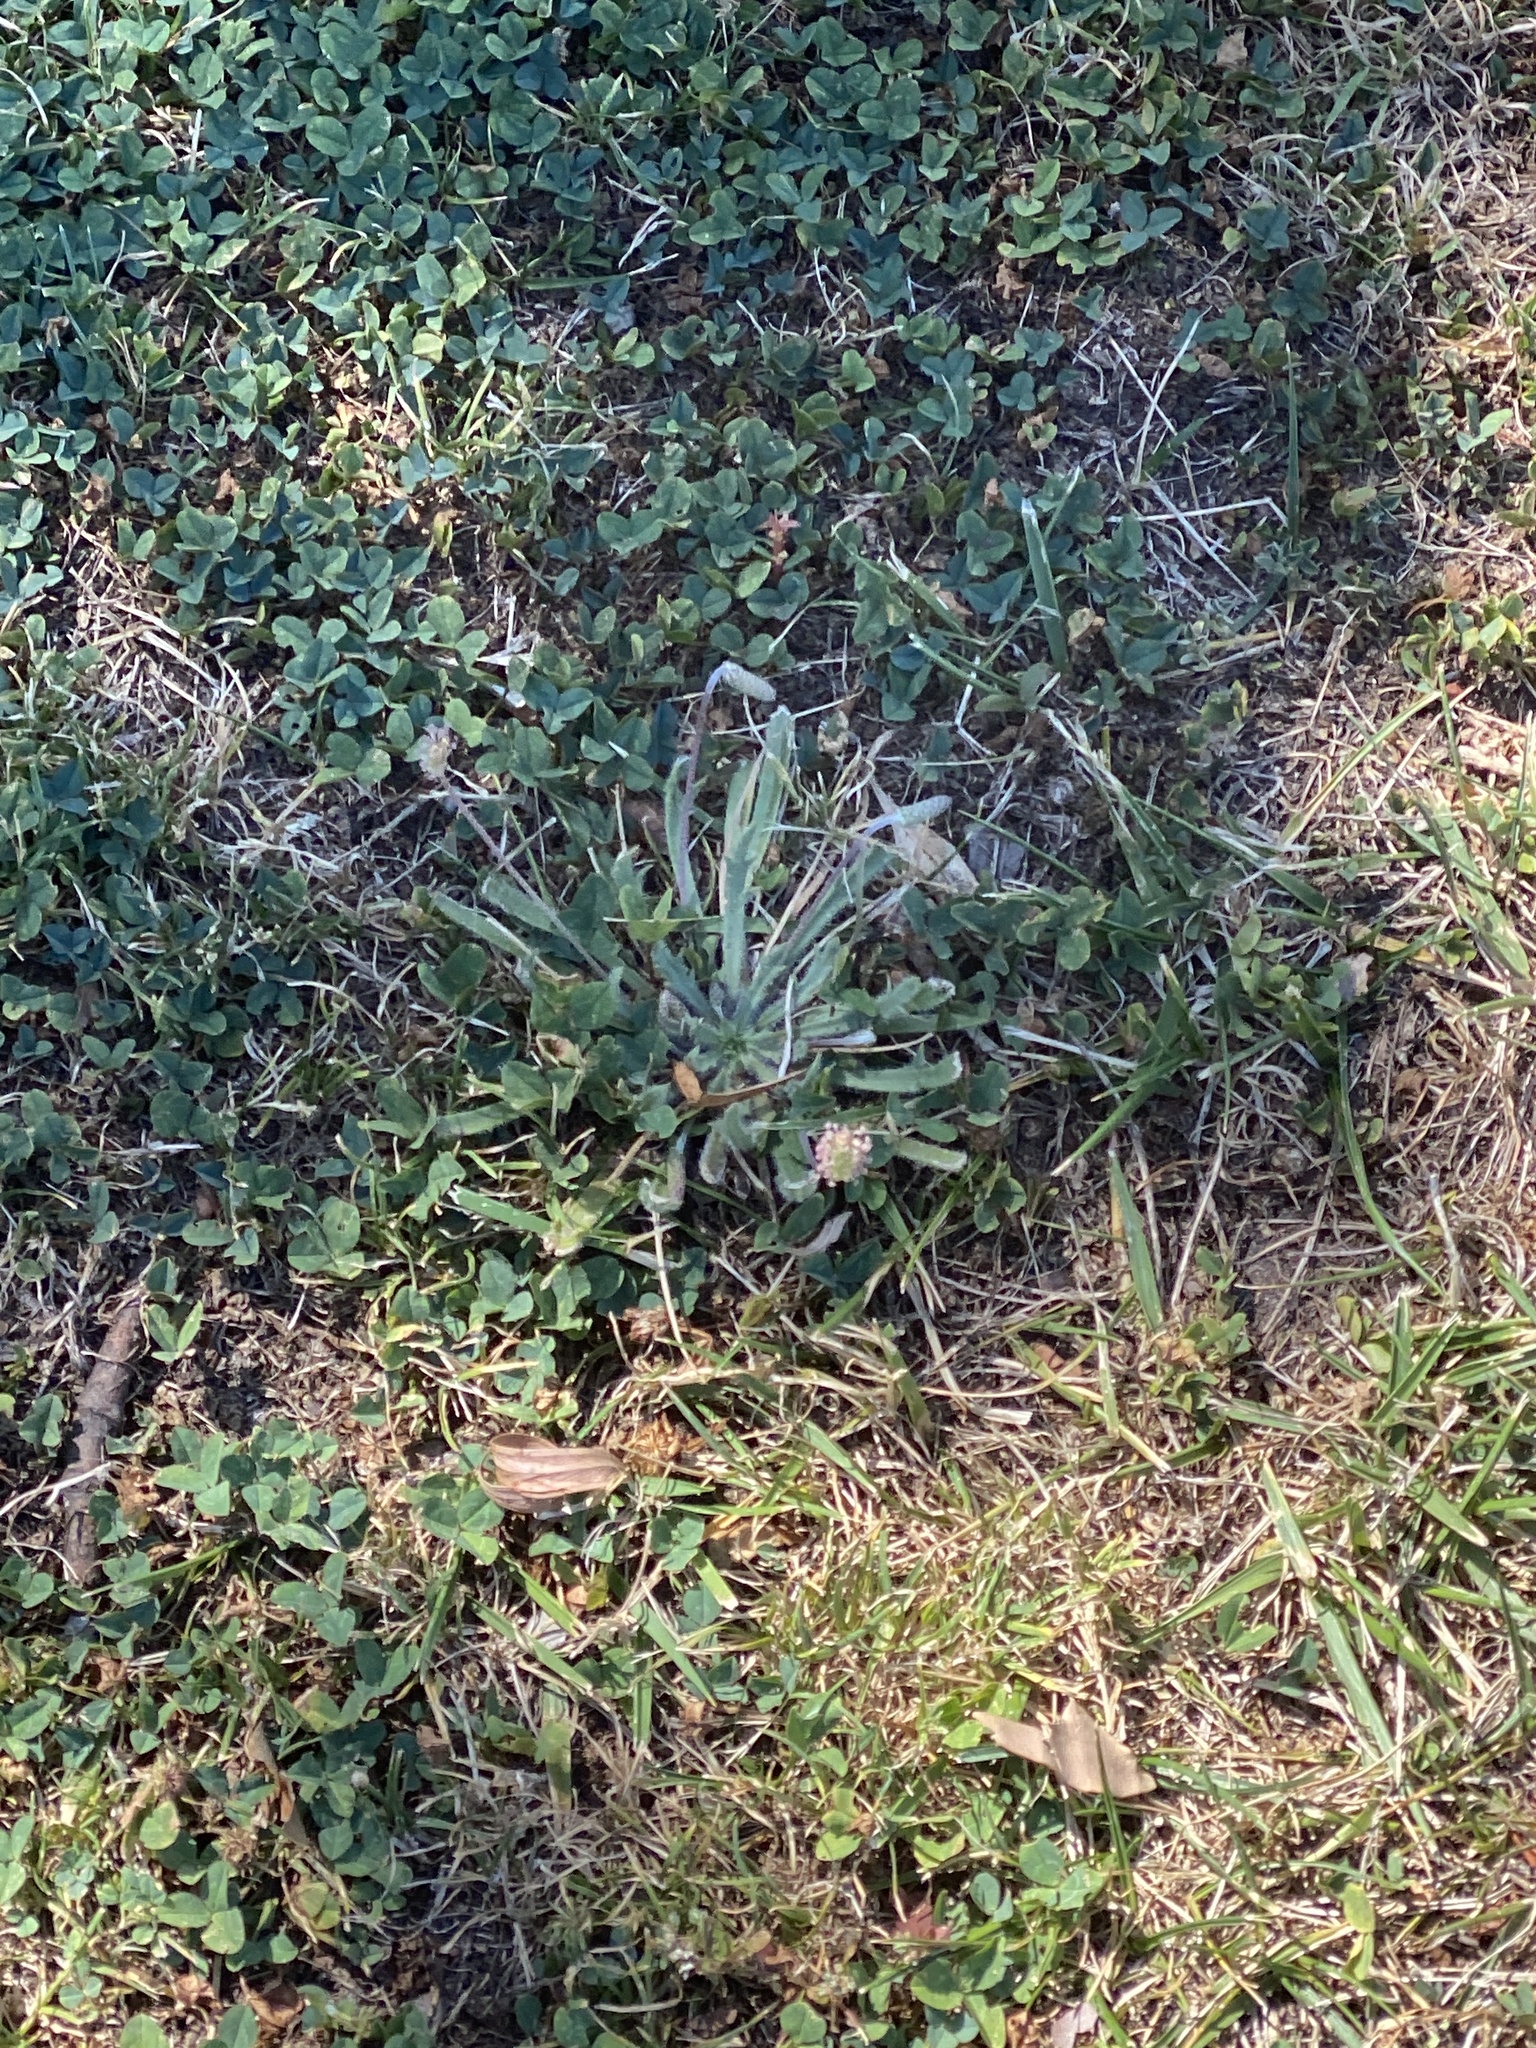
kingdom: Plantae
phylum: Tracheophyta
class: Magnoliopsida
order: Lamiales
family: Plantaginaceae
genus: Plantago
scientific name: Plantago coronopus
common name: Buck's-horn plantain
